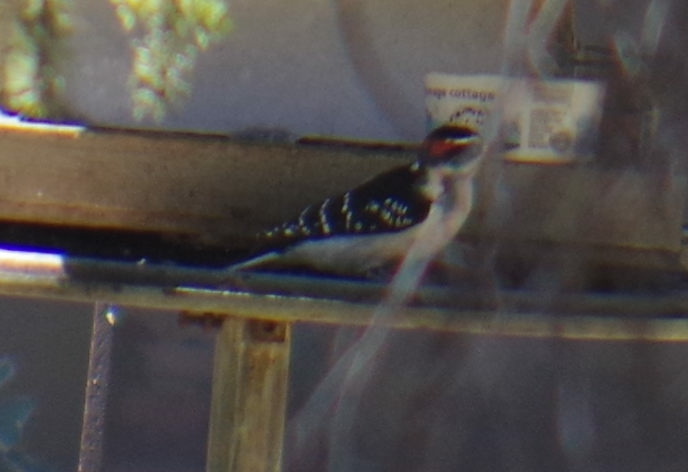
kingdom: Animalia
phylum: Chordata
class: Aves
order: Piciformes
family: Picidae
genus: Leuconotopicus
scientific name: Leuconotopicus villosus
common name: Hairy woodpecker
